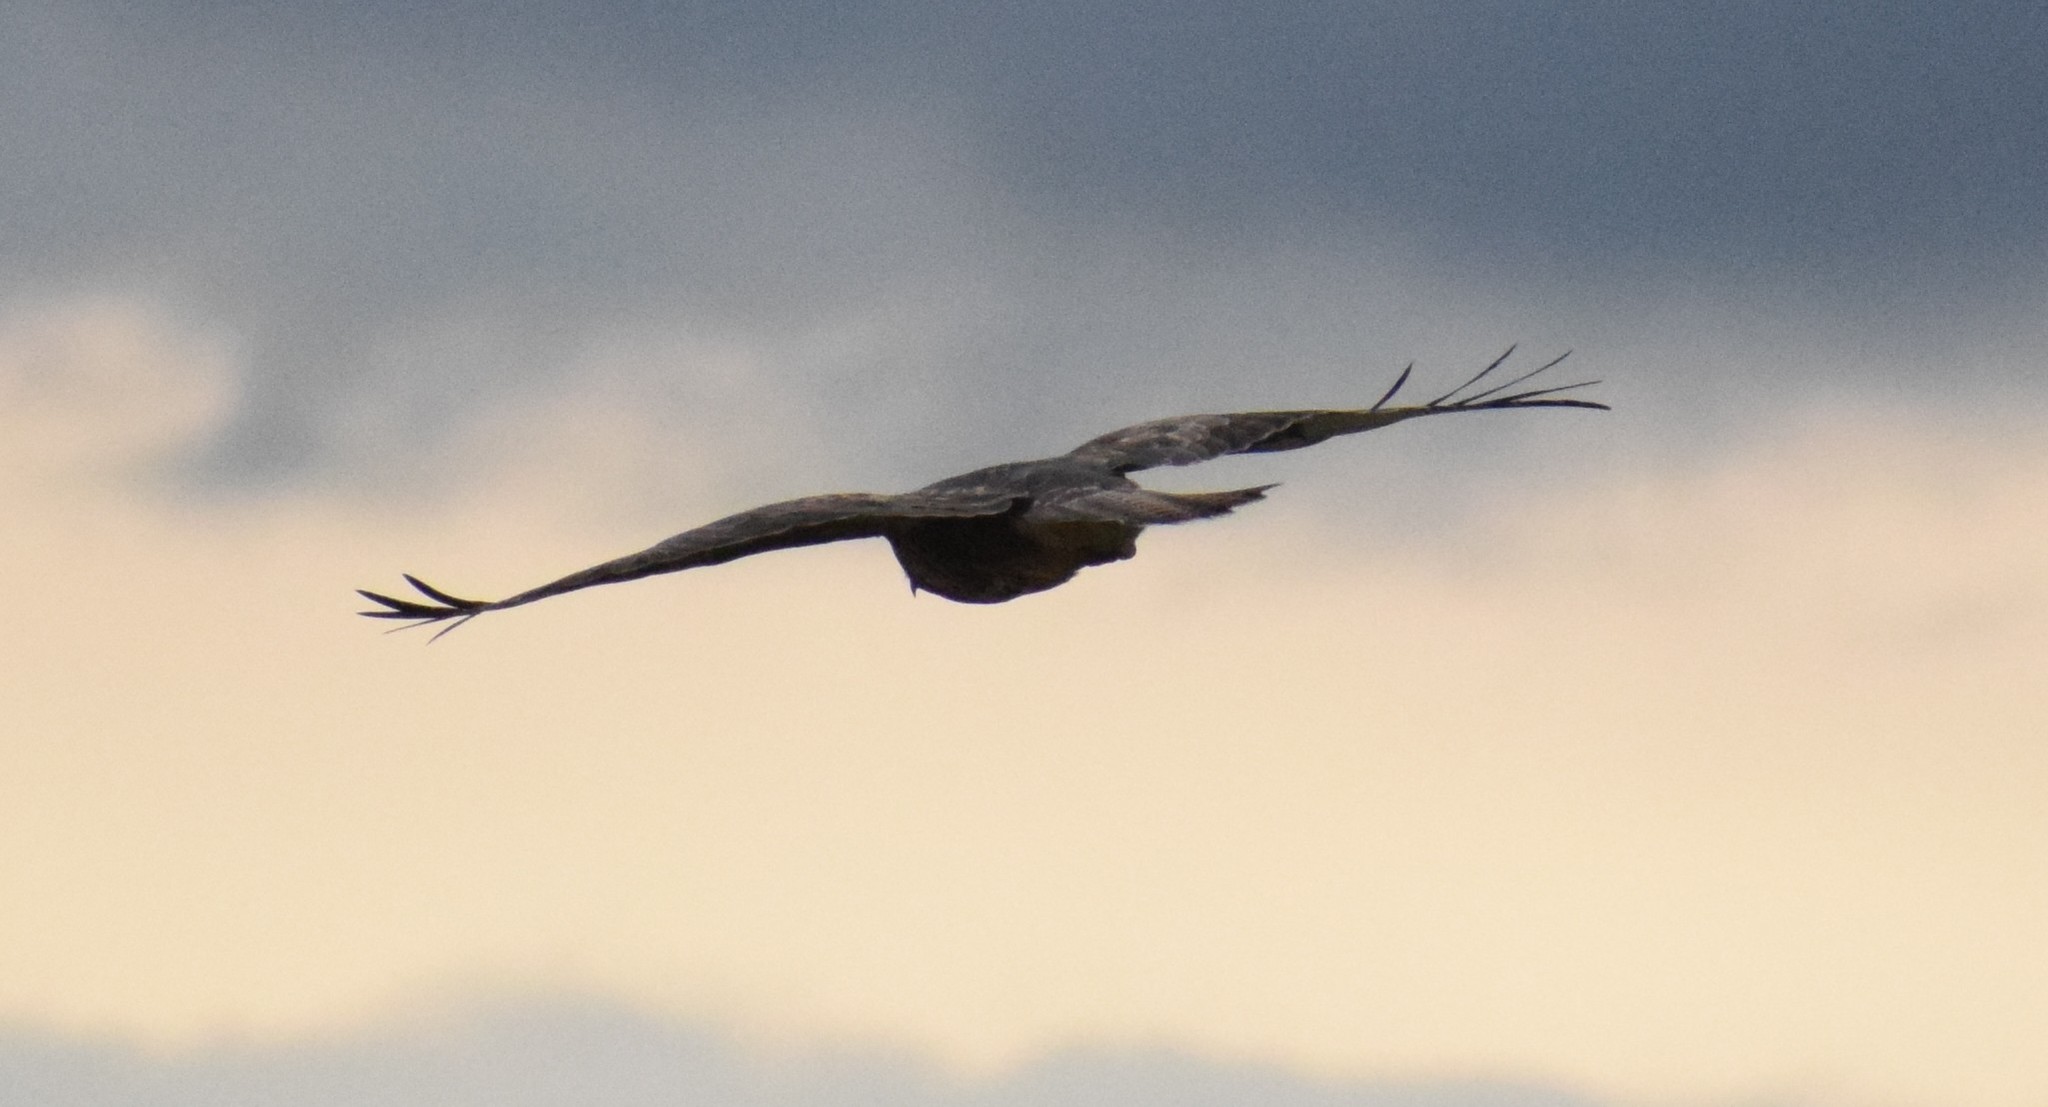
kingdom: Animalia
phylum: Chordata
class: Aves
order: Accipitriformes
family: Accipitridae
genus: Buteo
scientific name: Buteo buteo
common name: Common buzzard
